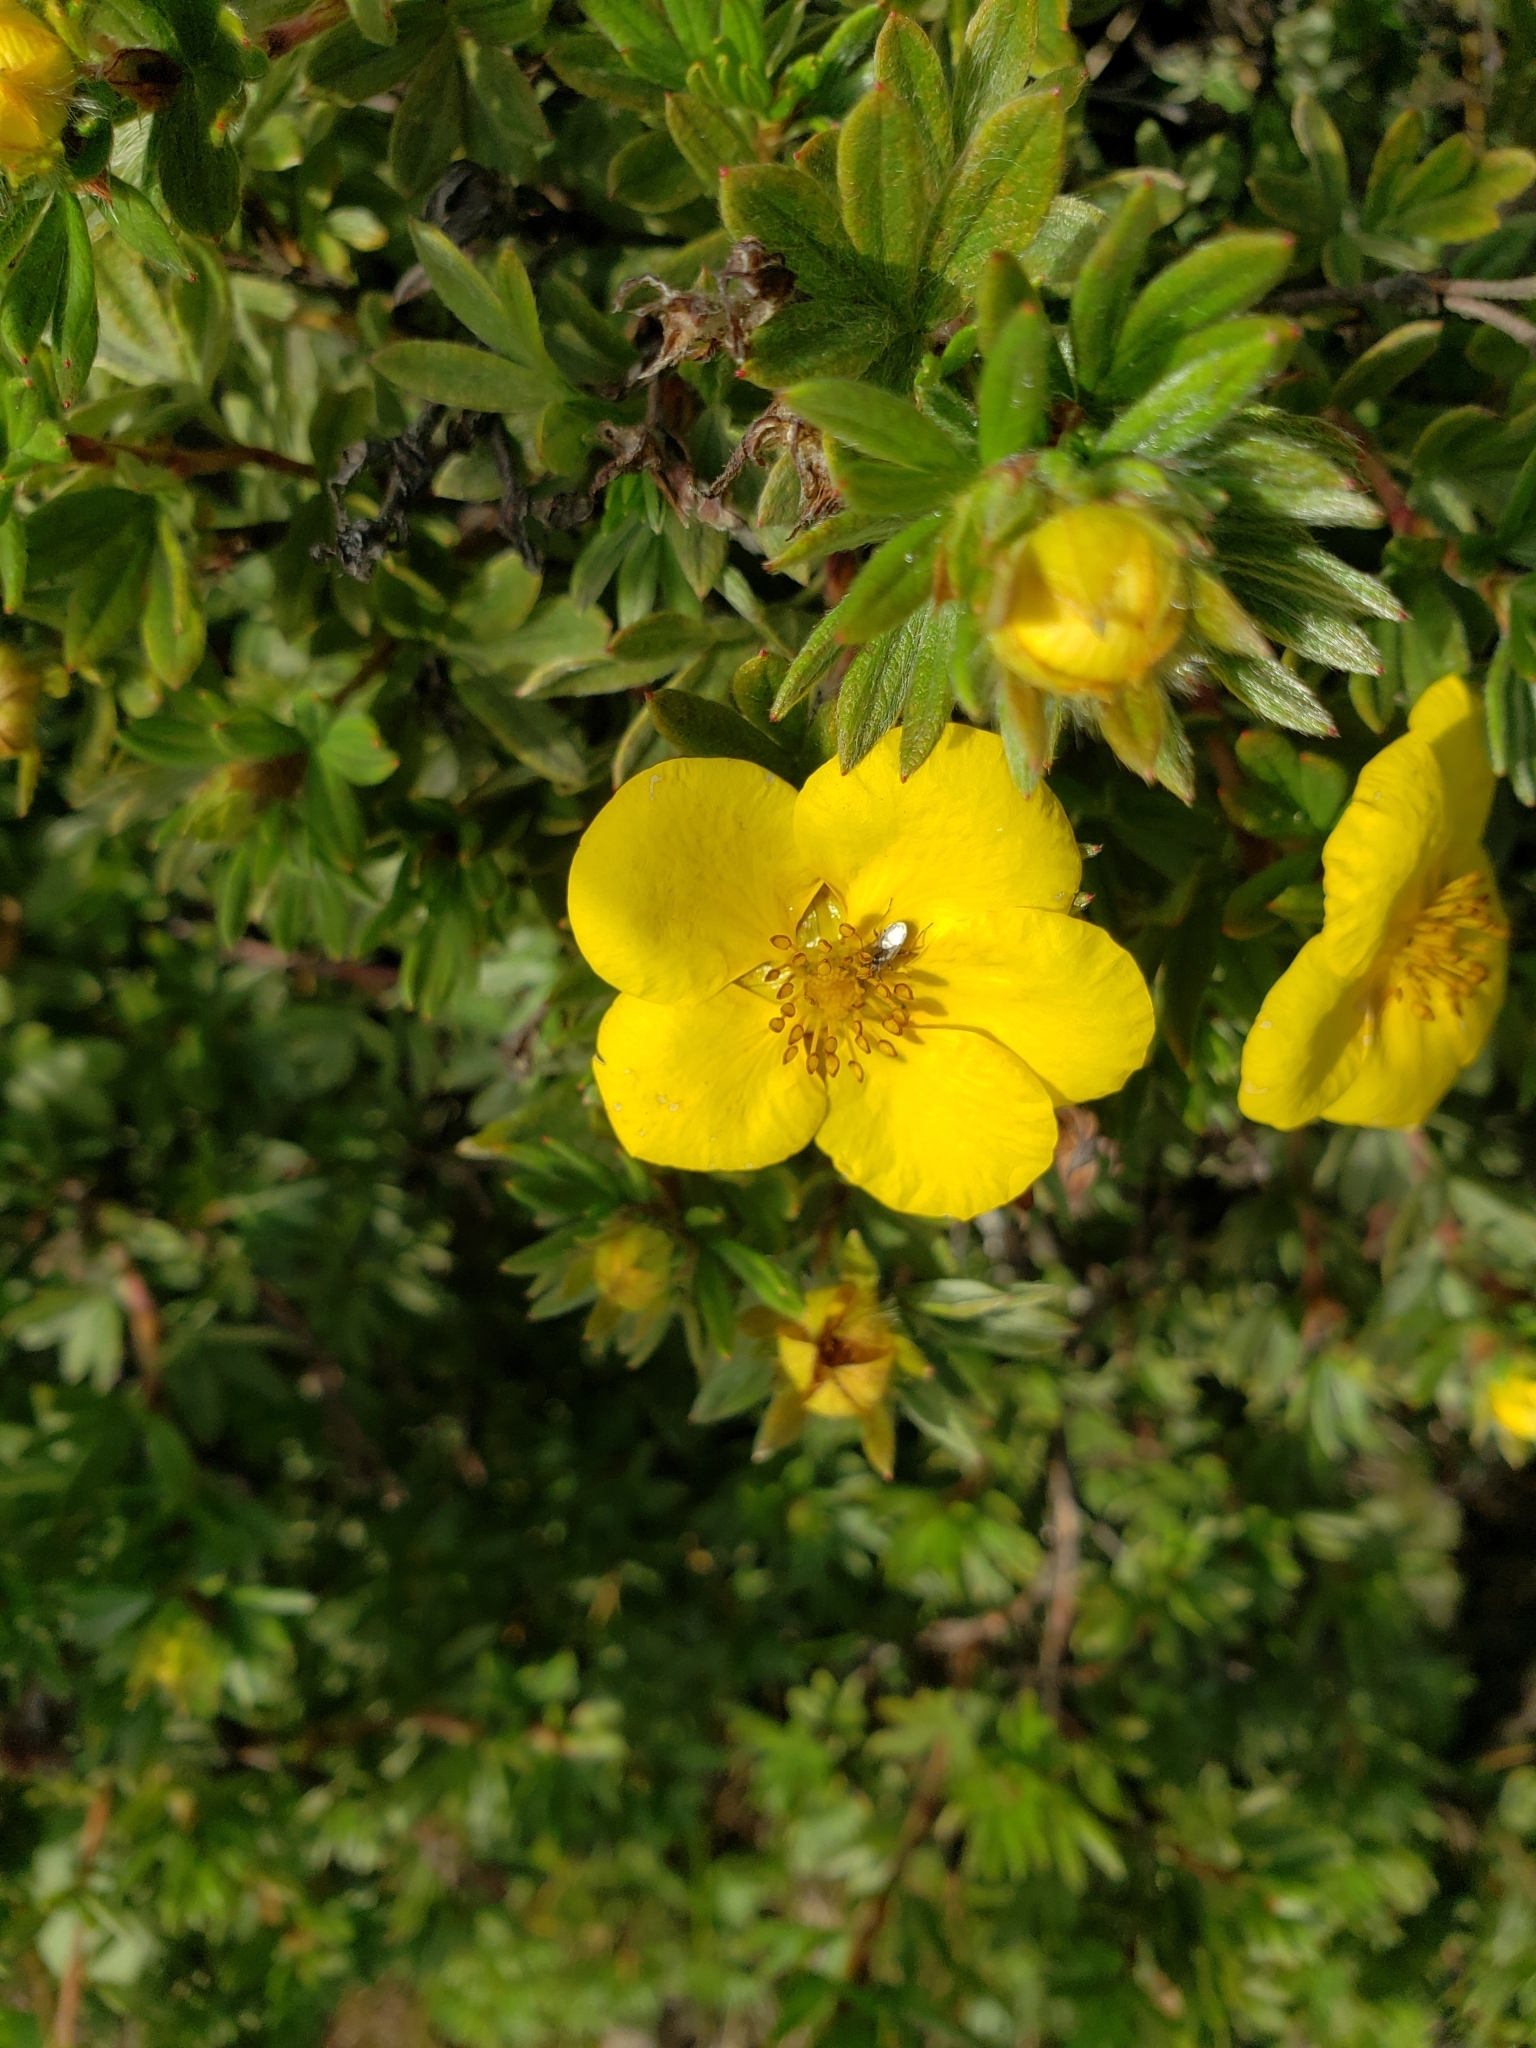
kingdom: Plantae
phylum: Tracheophyta
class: Magnoliopsida
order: Rosales
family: Rosaceae
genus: Dasiphora
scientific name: Dasiphora fruticosa
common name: Shrubby cinquefoil
